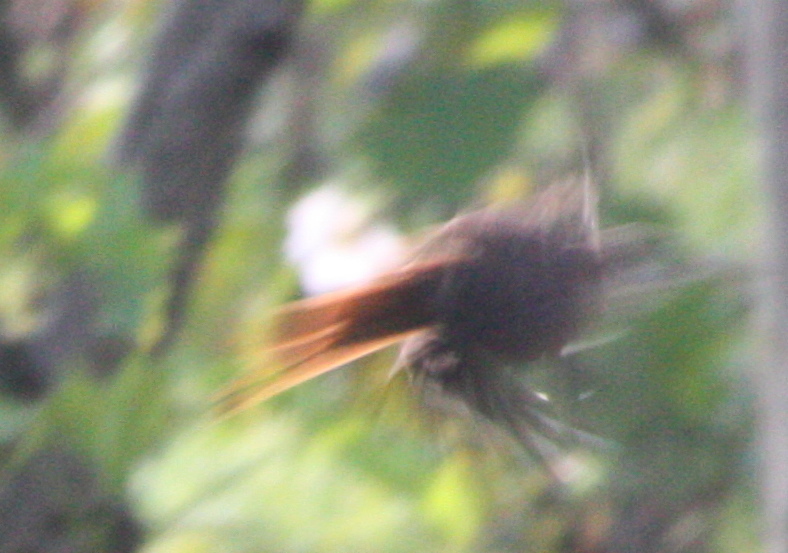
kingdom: Animalia
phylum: Chordata
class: Aves
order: Passeriformes
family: Troglodytidae
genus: Catherpes
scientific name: Catherpes mexicanus
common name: Canyon wren
